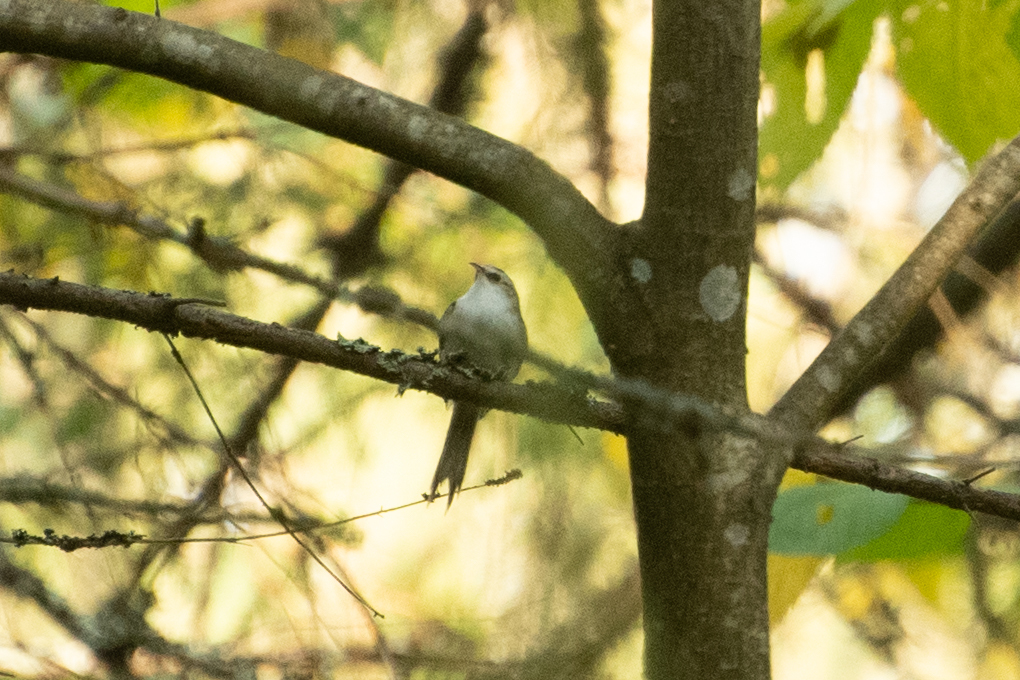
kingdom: Animalia
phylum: Chordata
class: Aves
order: Passeriformes
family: Certhiidae
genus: Certhia
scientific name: Certhia familiaris
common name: Eurasian treecreeper
